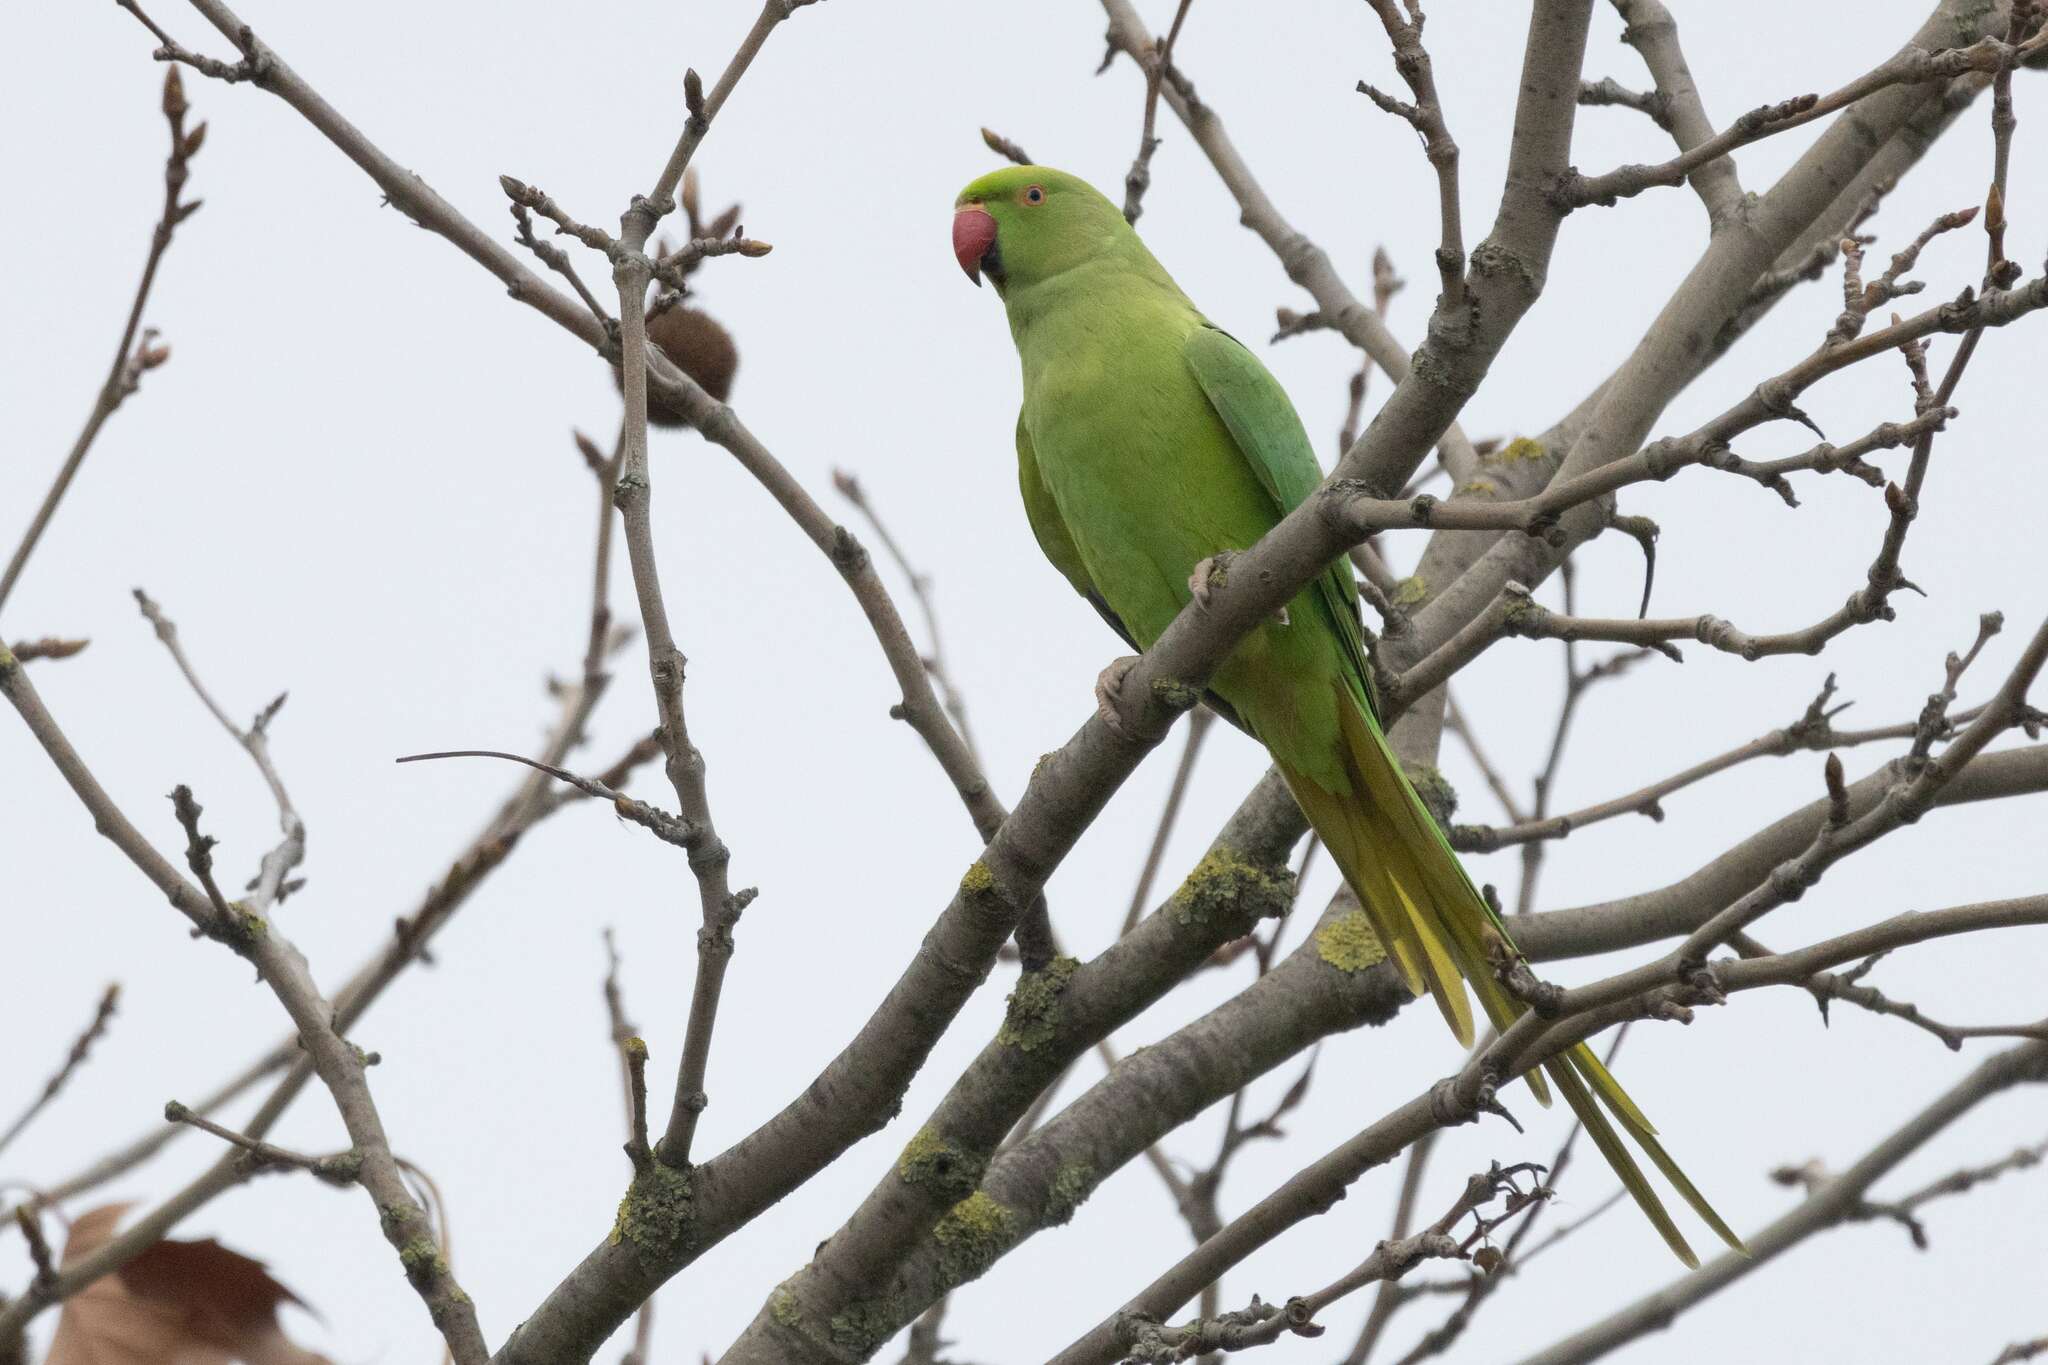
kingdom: Animalia
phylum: Chordata
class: Aves
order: Psittaciformes
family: Psittacidae
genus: Psittacula
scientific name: Psittacula krameri
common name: Rose-ringed parakeet
